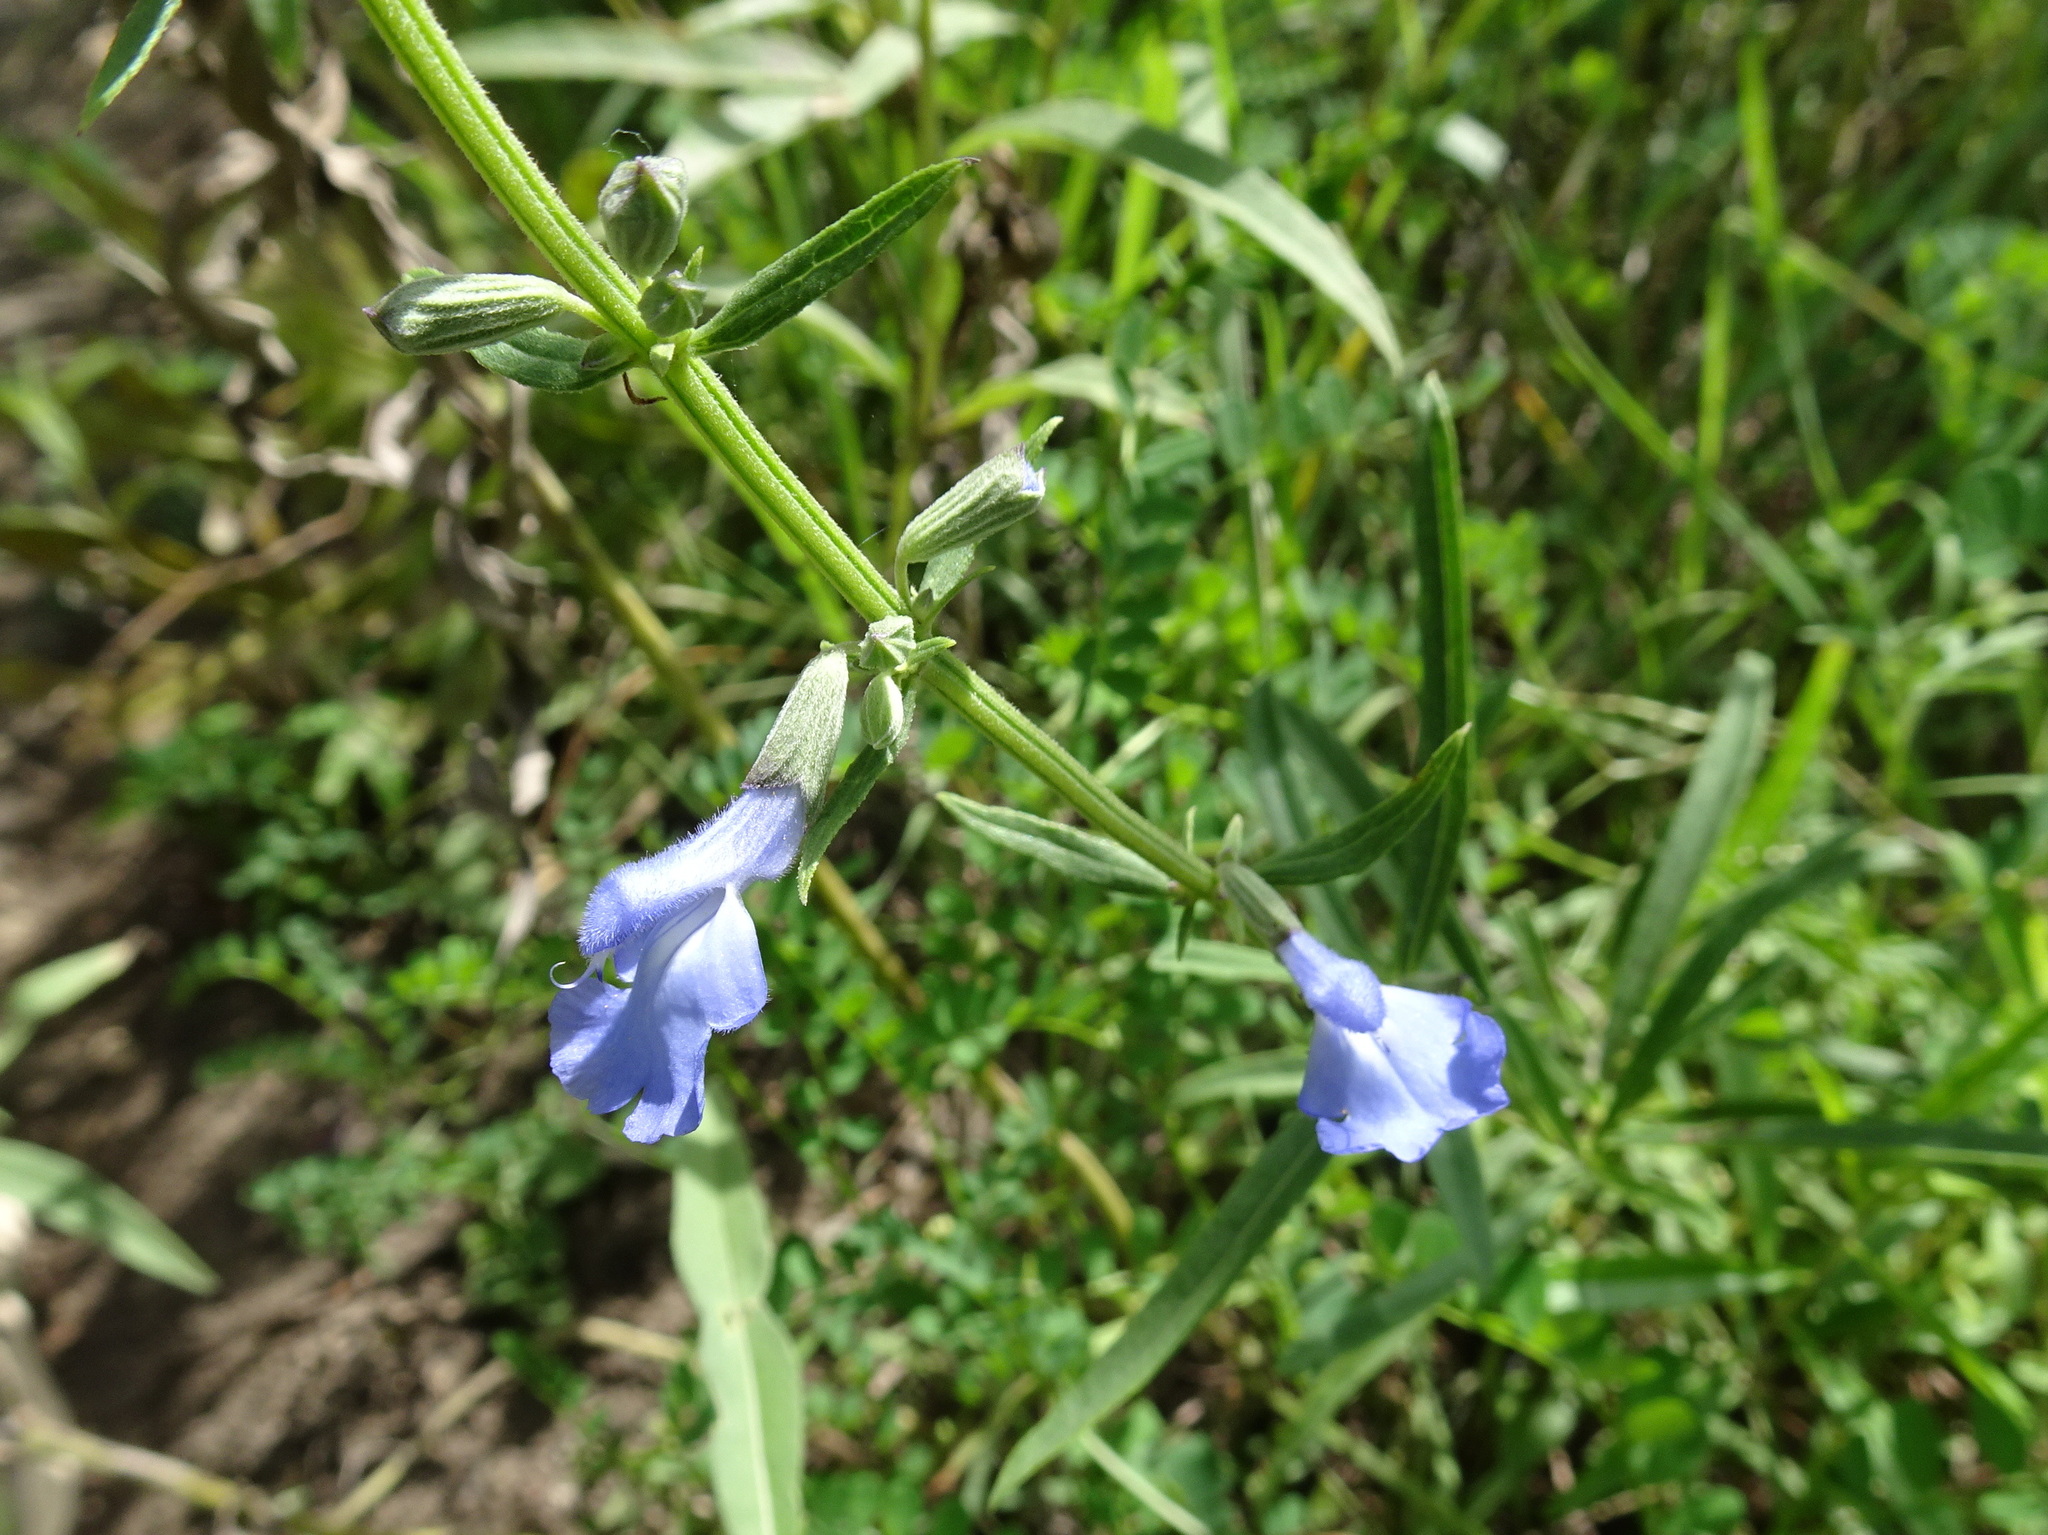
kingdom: Plantae
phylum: Tracheophyta
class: Magnoliopsida
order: Lamiales
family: Lamiaceae
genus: Salvia
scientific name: Salvia azurea
